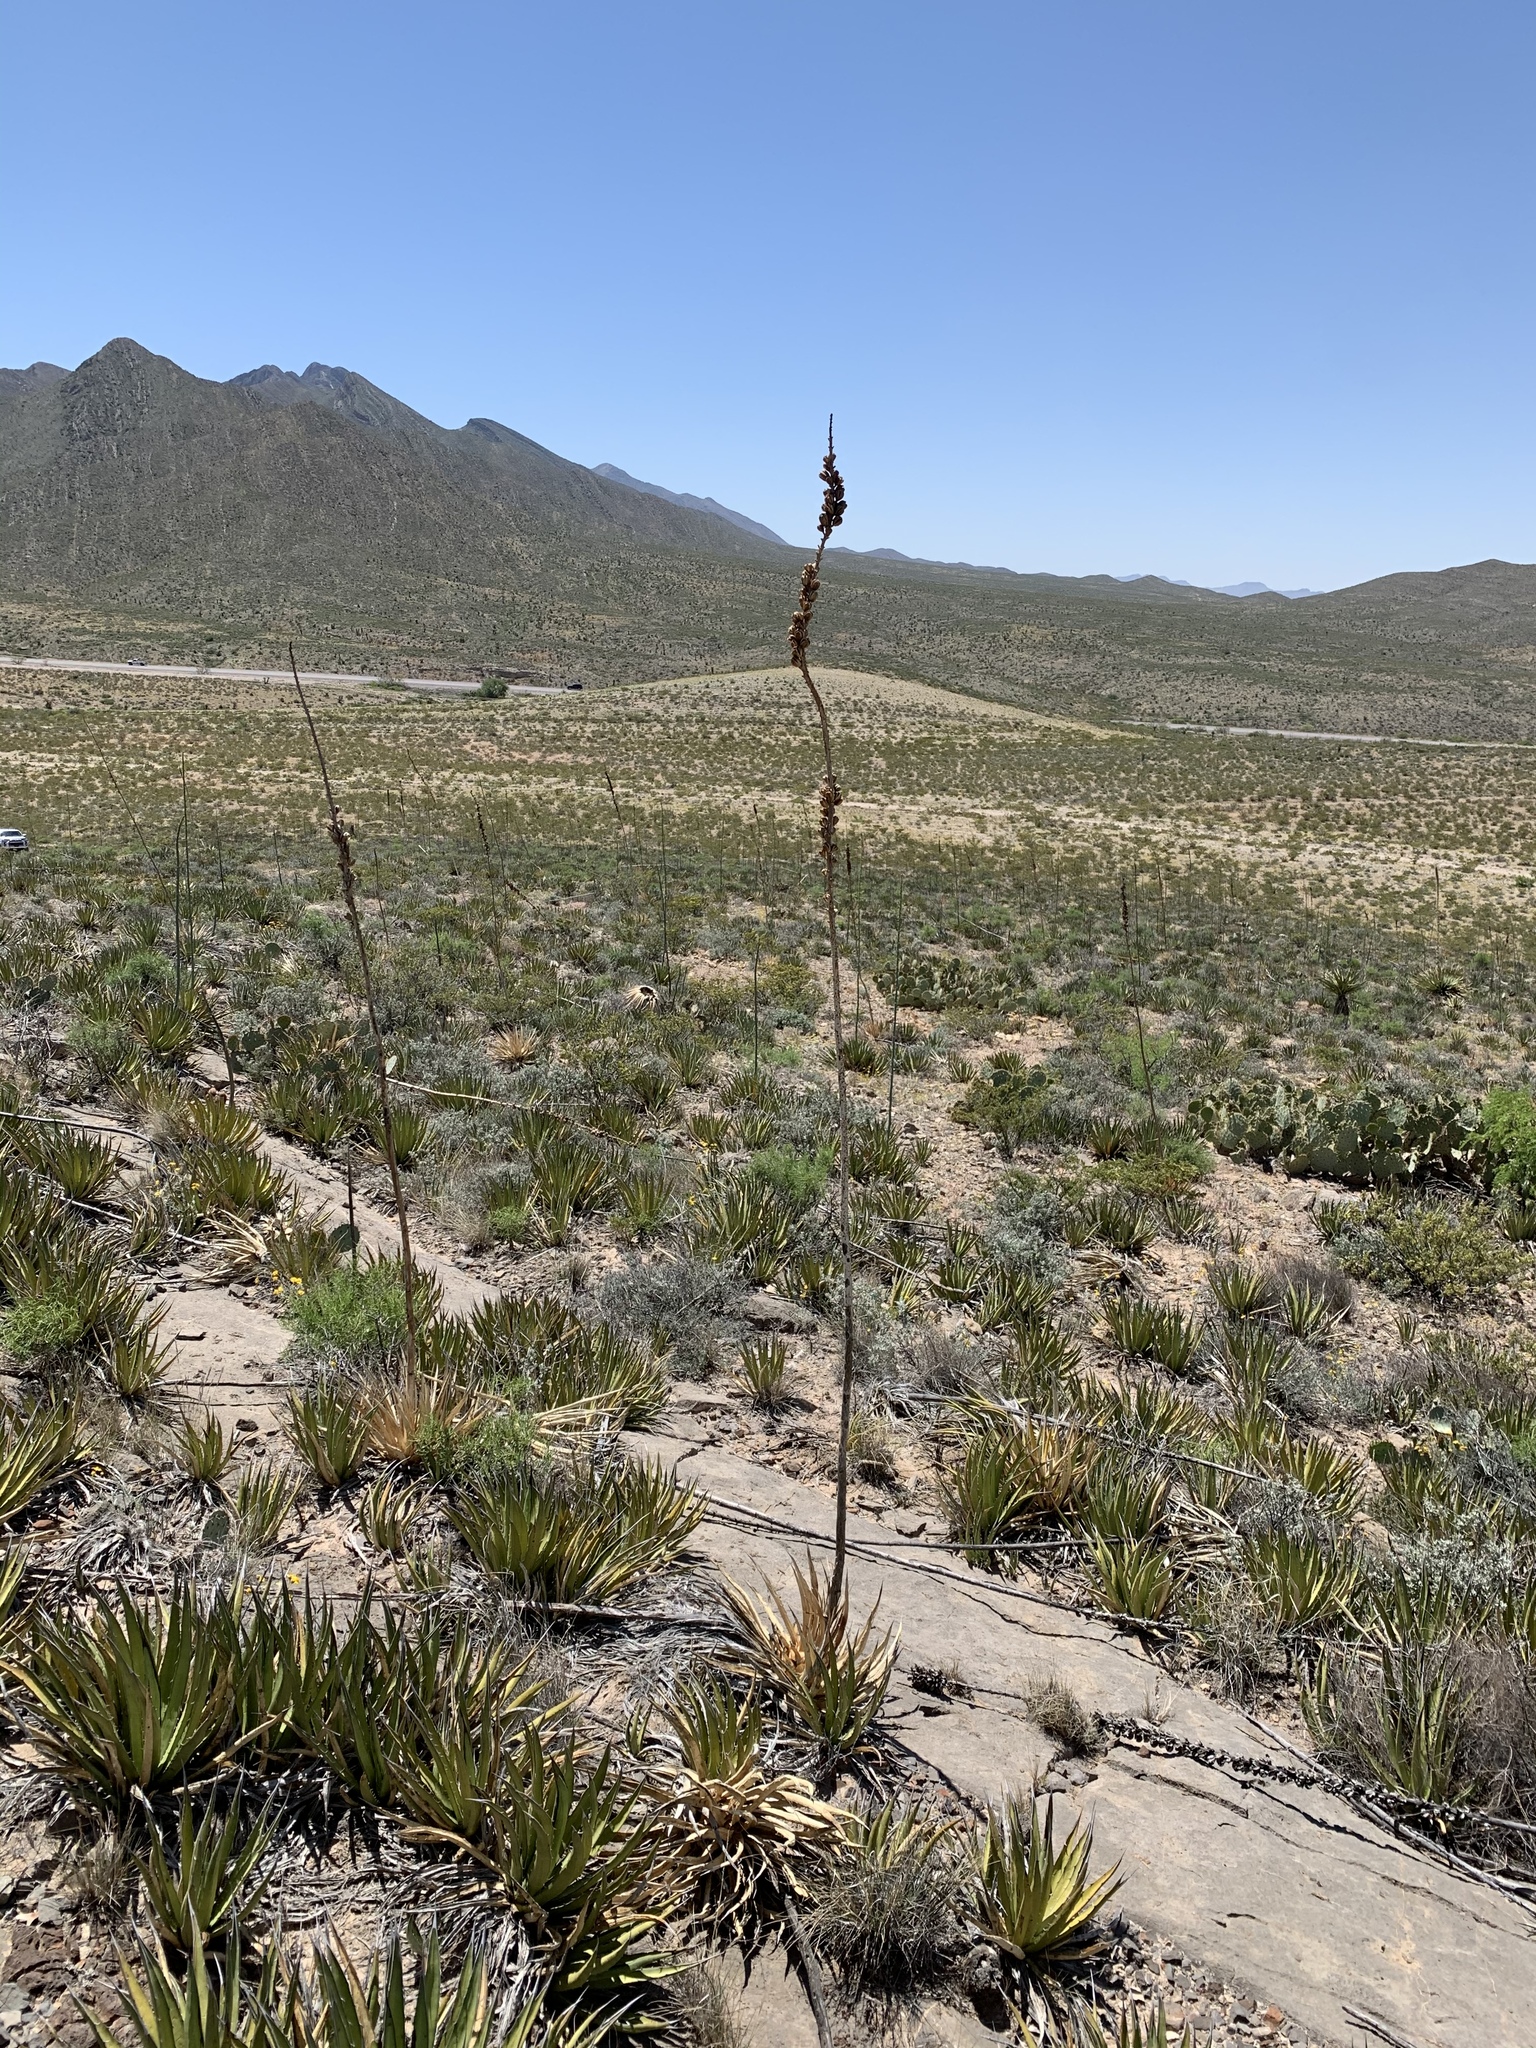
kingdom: Plantae
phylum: Tracheophyta
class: Liliopsida
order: Asparagales
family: Asparagaceae
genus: Agave
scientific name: Agave lechuguilla
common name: Lecheguilla agave
